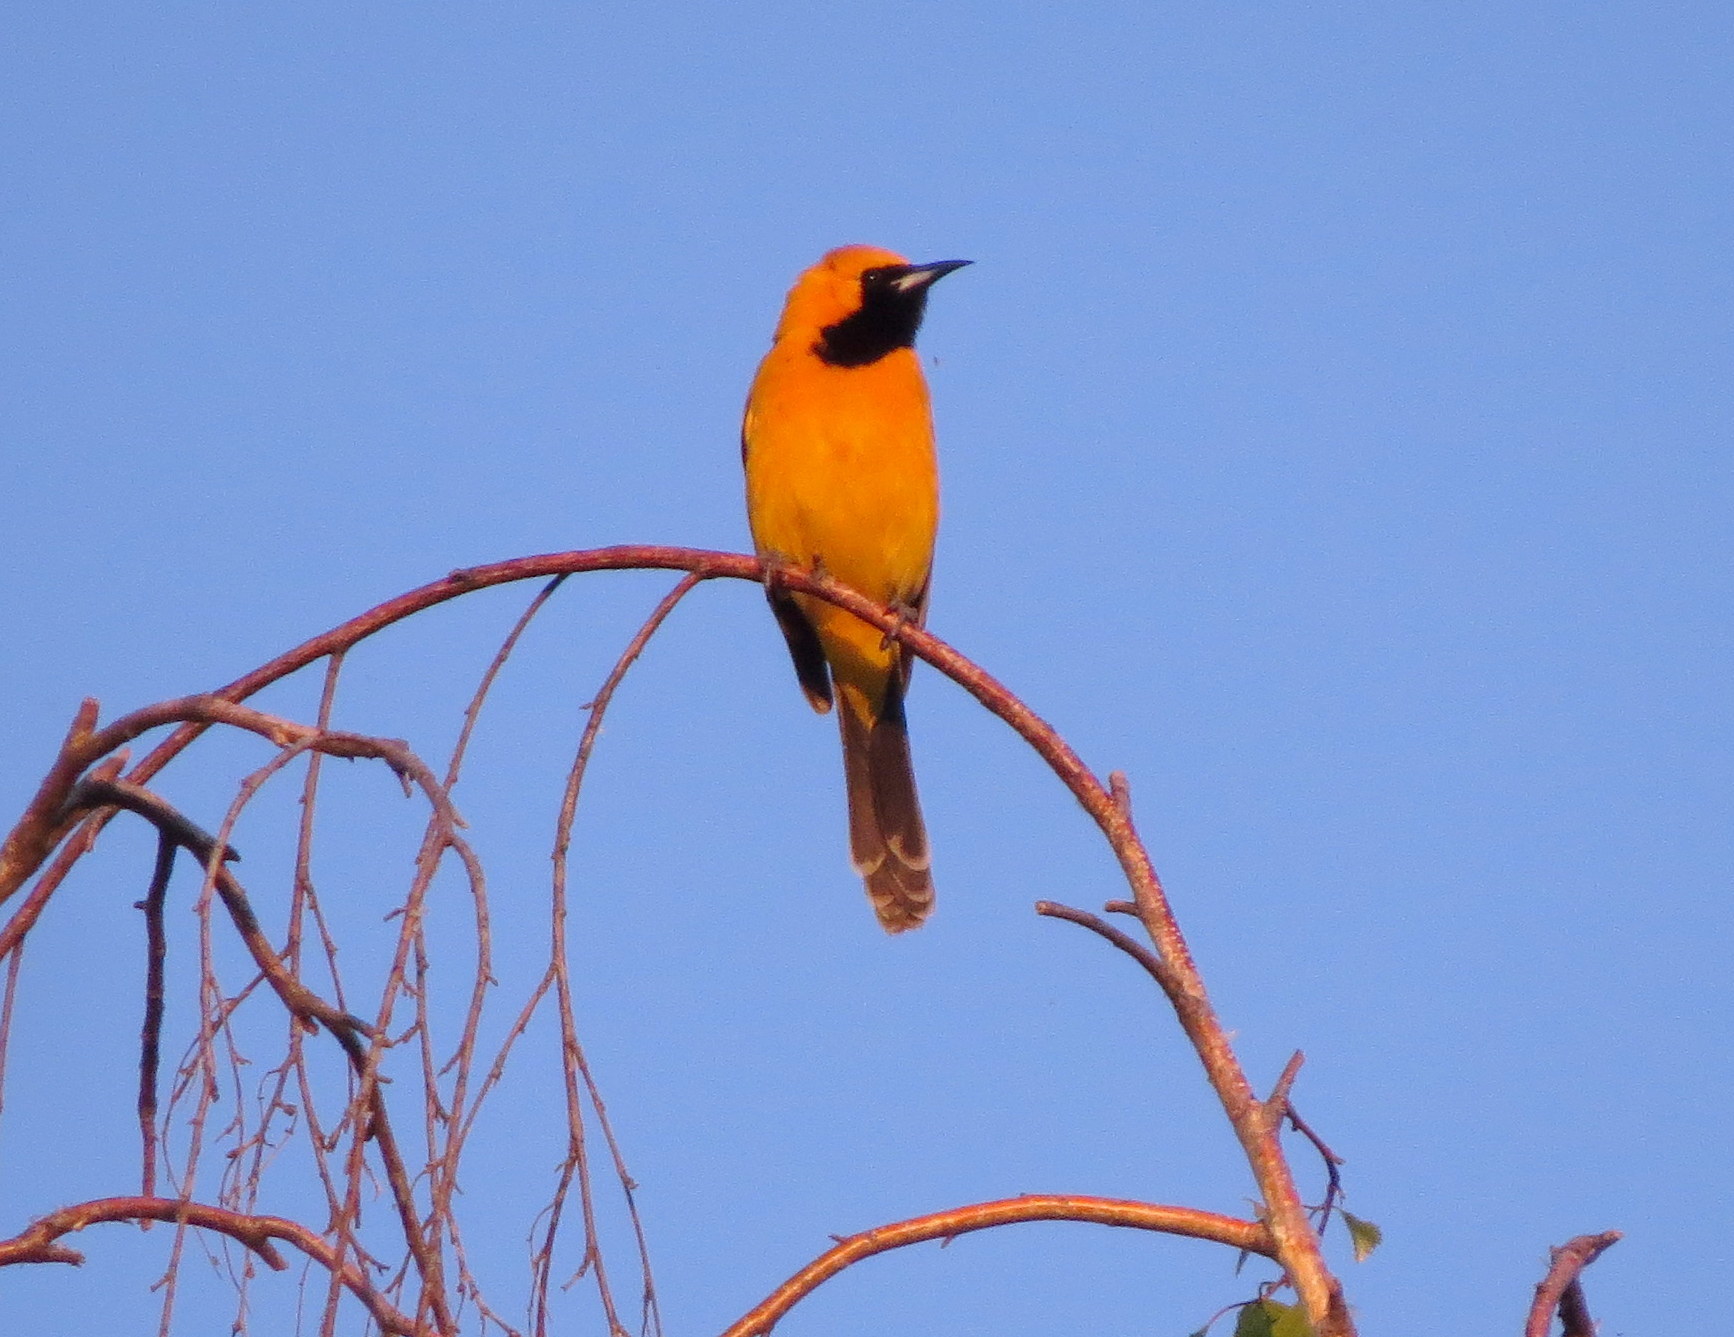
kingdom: Animalia
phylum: Chordata
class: Aves
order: Passeriformes
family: Icteridae
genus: Icterus
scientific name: Icterus cucullatus
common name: Hooded oriole
